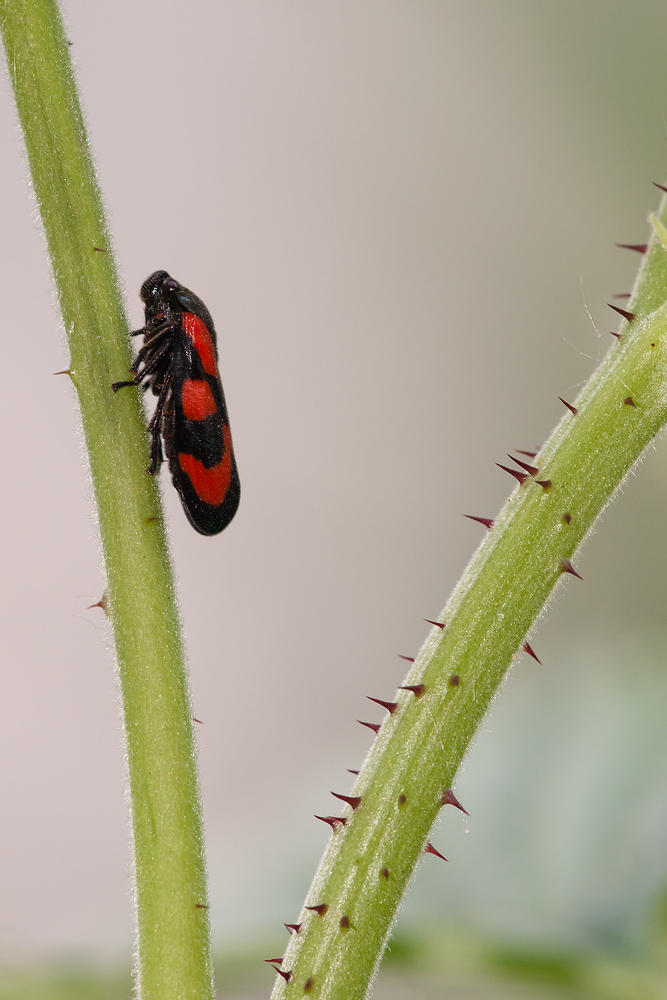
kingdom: Animalia
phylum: Arthropoda
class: Insecta
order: Hemiptera
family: Cercopidae
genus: Cercopis
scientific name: Cercopis vulnerata
